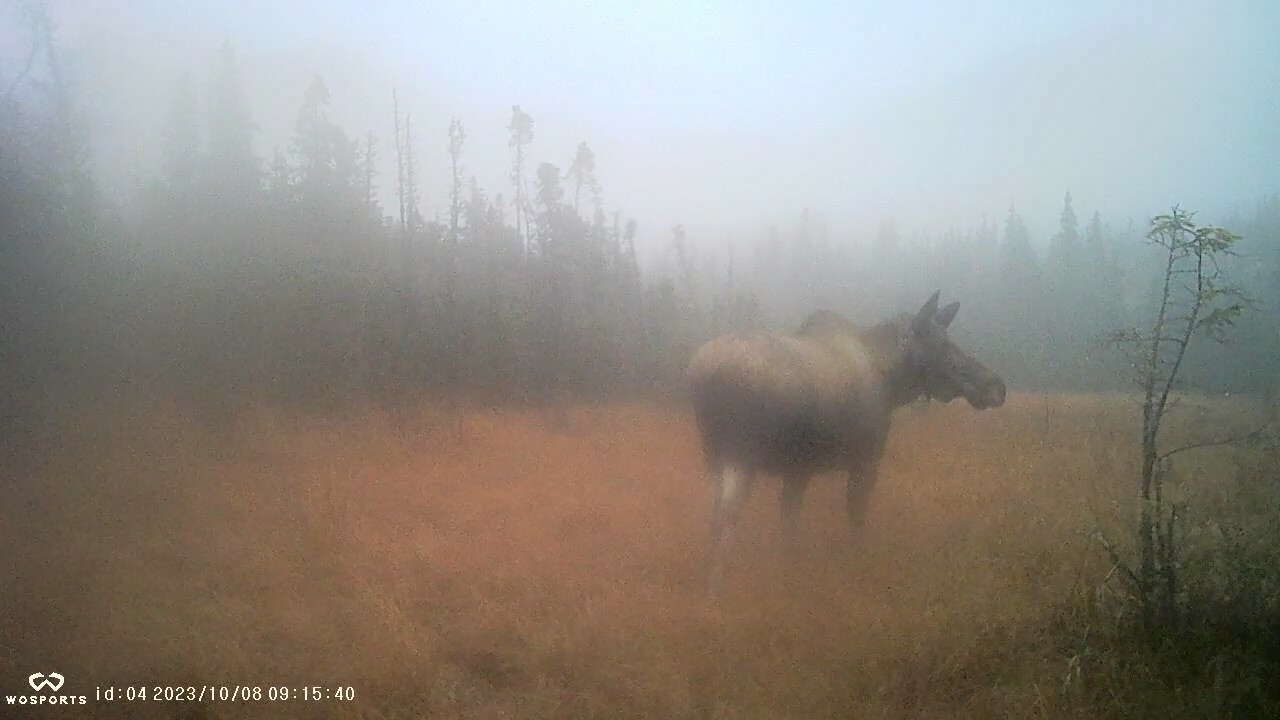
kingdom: Animalia
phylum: Chordata
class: Mammalia
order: Artiodactyla
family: Cervidae
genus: Alces
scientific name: Alces alces
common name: Moose
